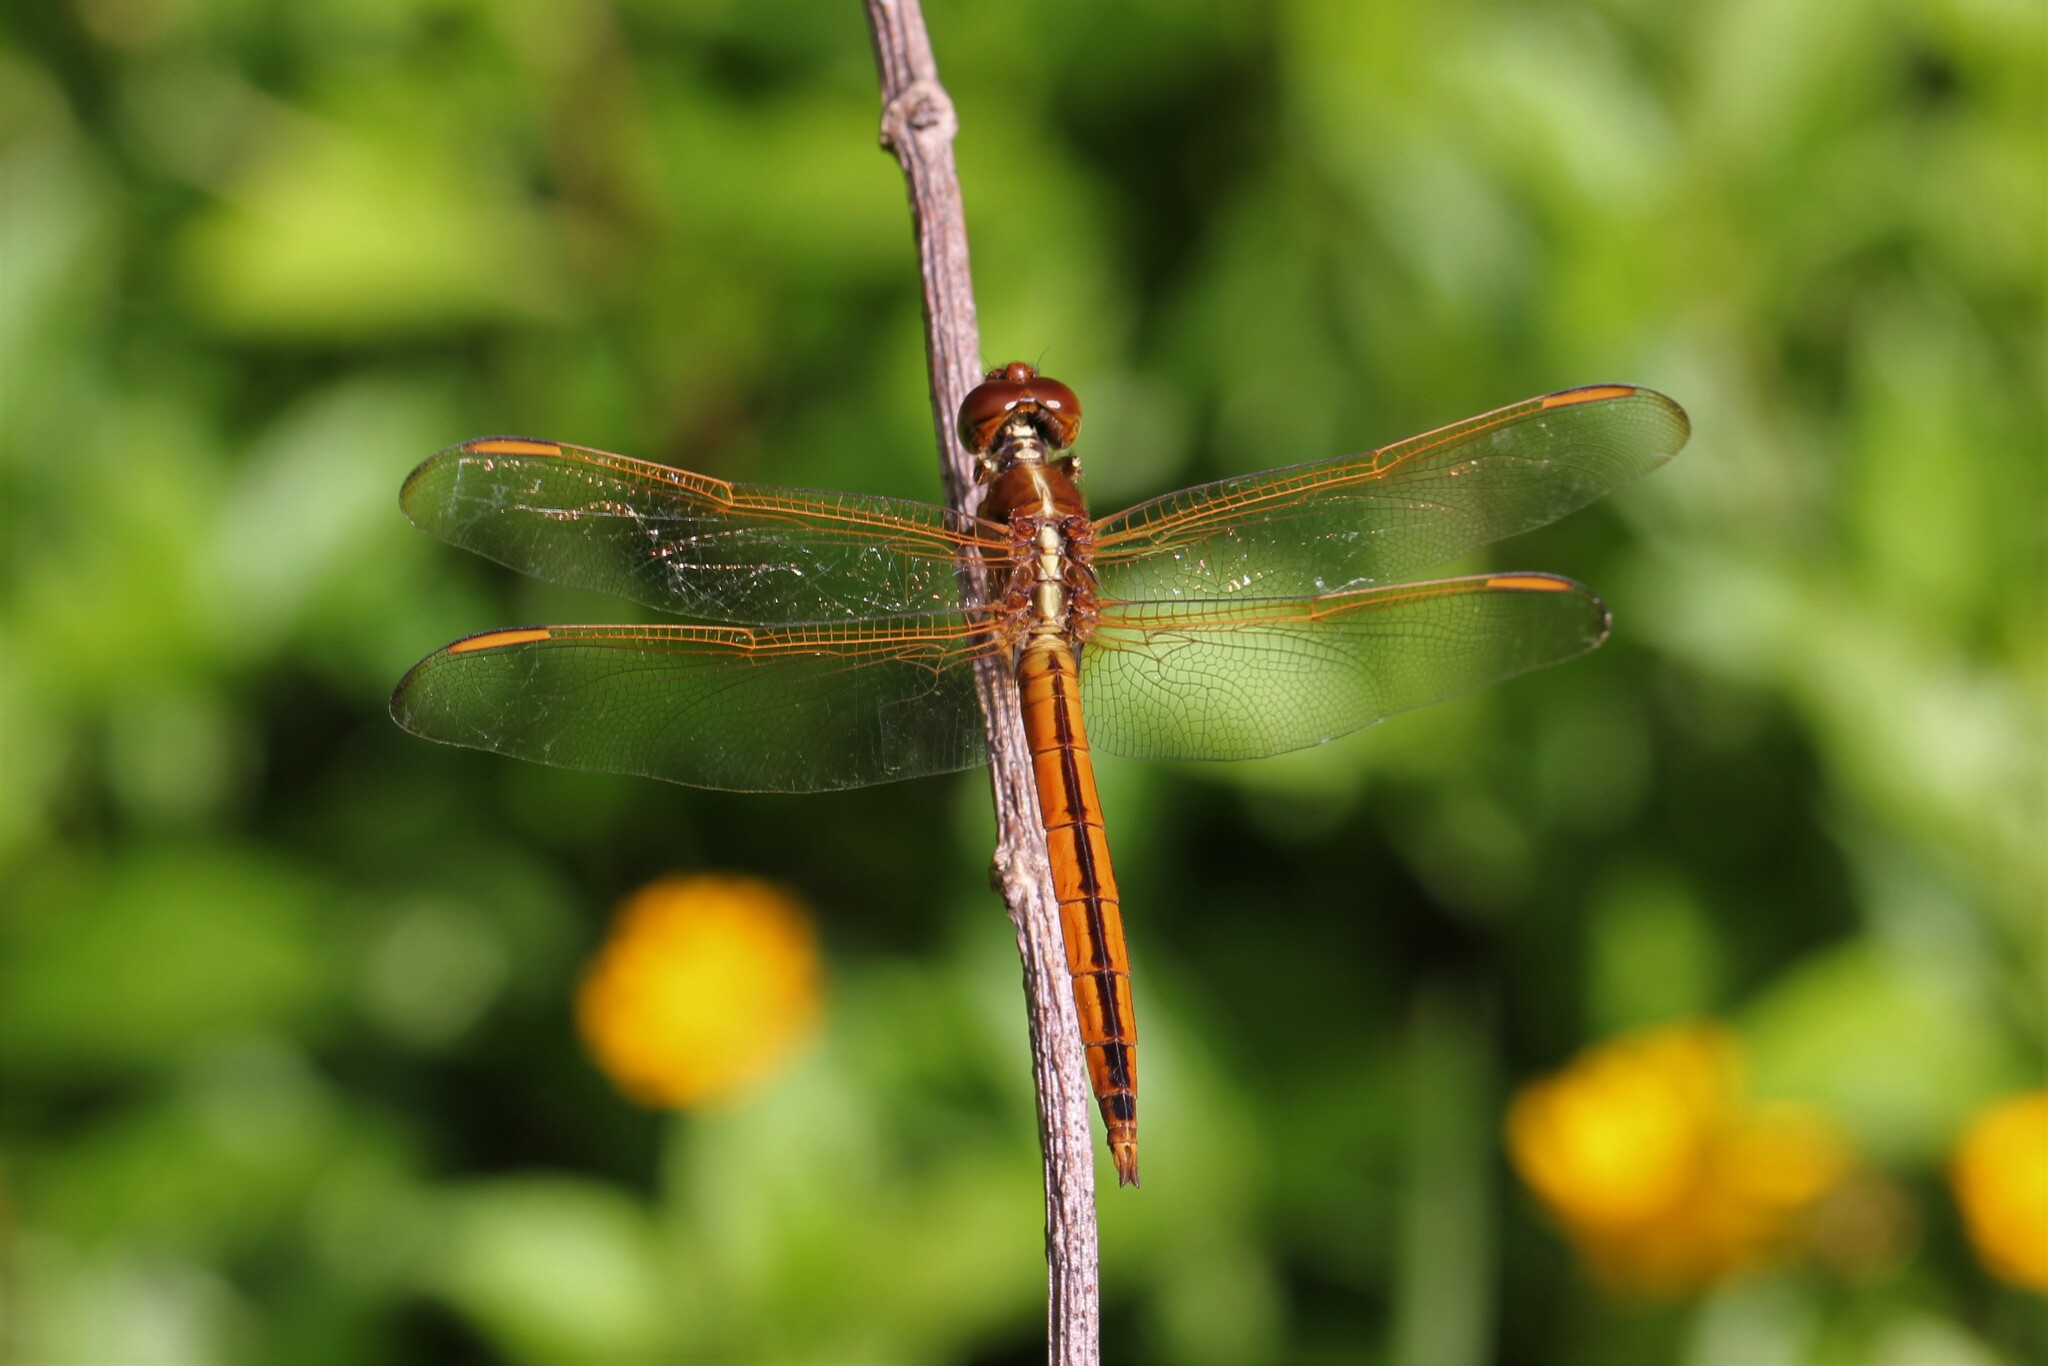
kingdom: Animalia
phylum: Arthropoda
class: Insecta
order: Odonata
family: Libellulidae
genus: Libellula
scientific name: Libellula needhami
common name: Needham's skimmer
